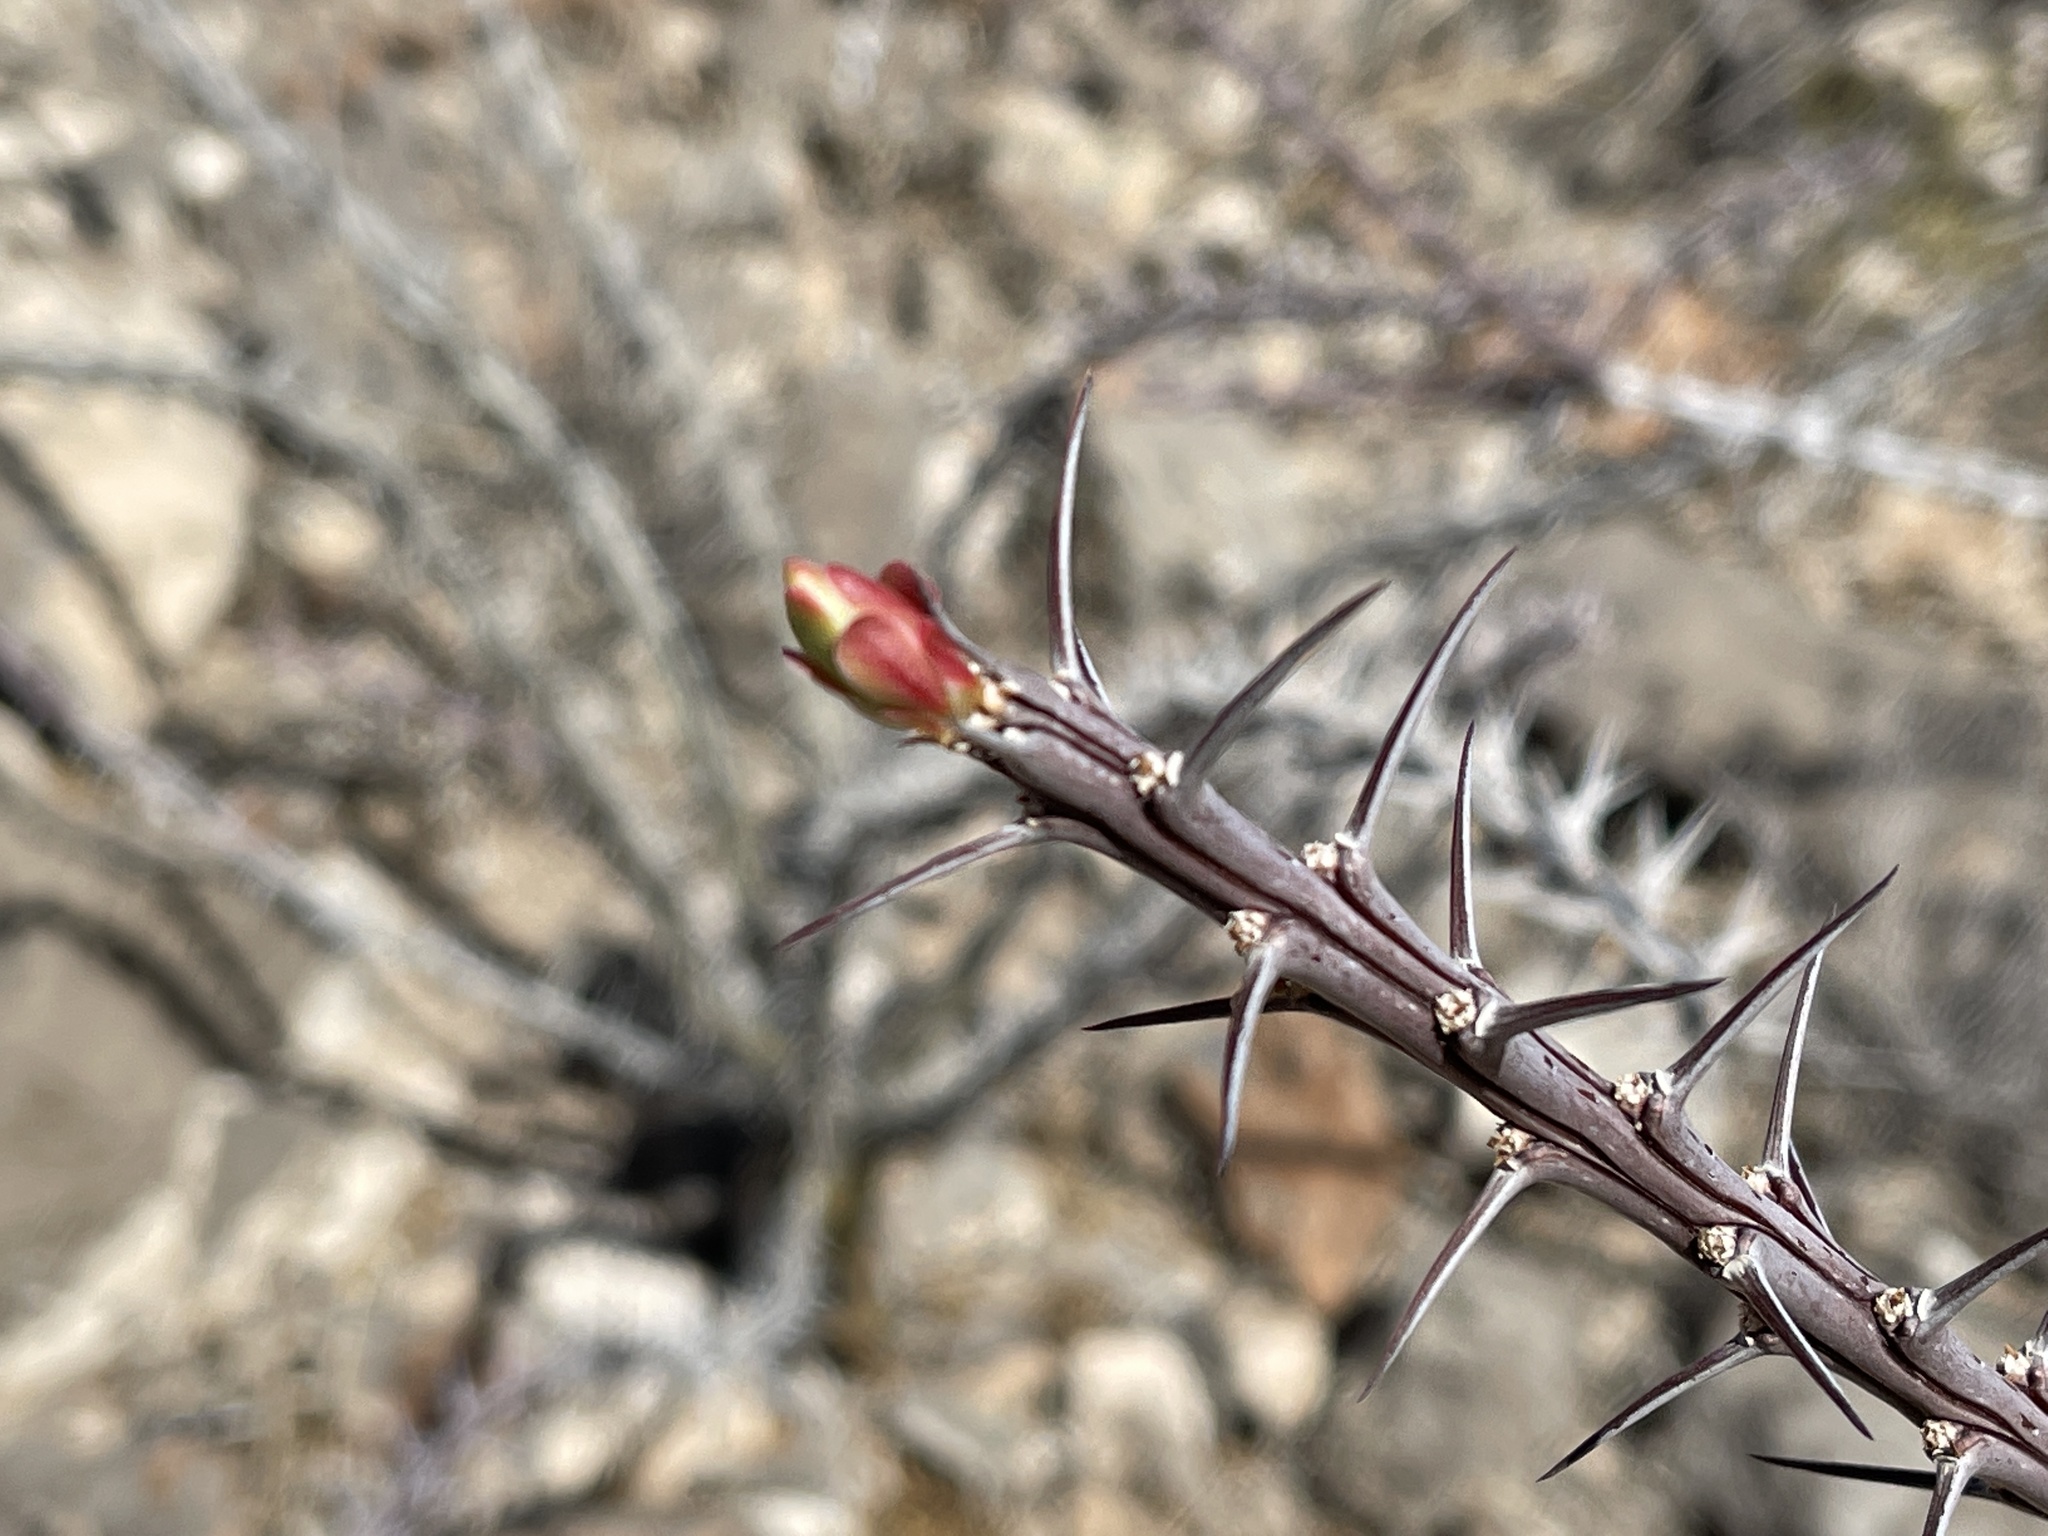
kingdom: Plantae
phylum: Tracheophyta
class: Magnoliopsida
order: Ericales
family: Fouquieriaceae
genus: Fouquieria
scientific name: Fouquieria splendens
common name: Vine-cactus
